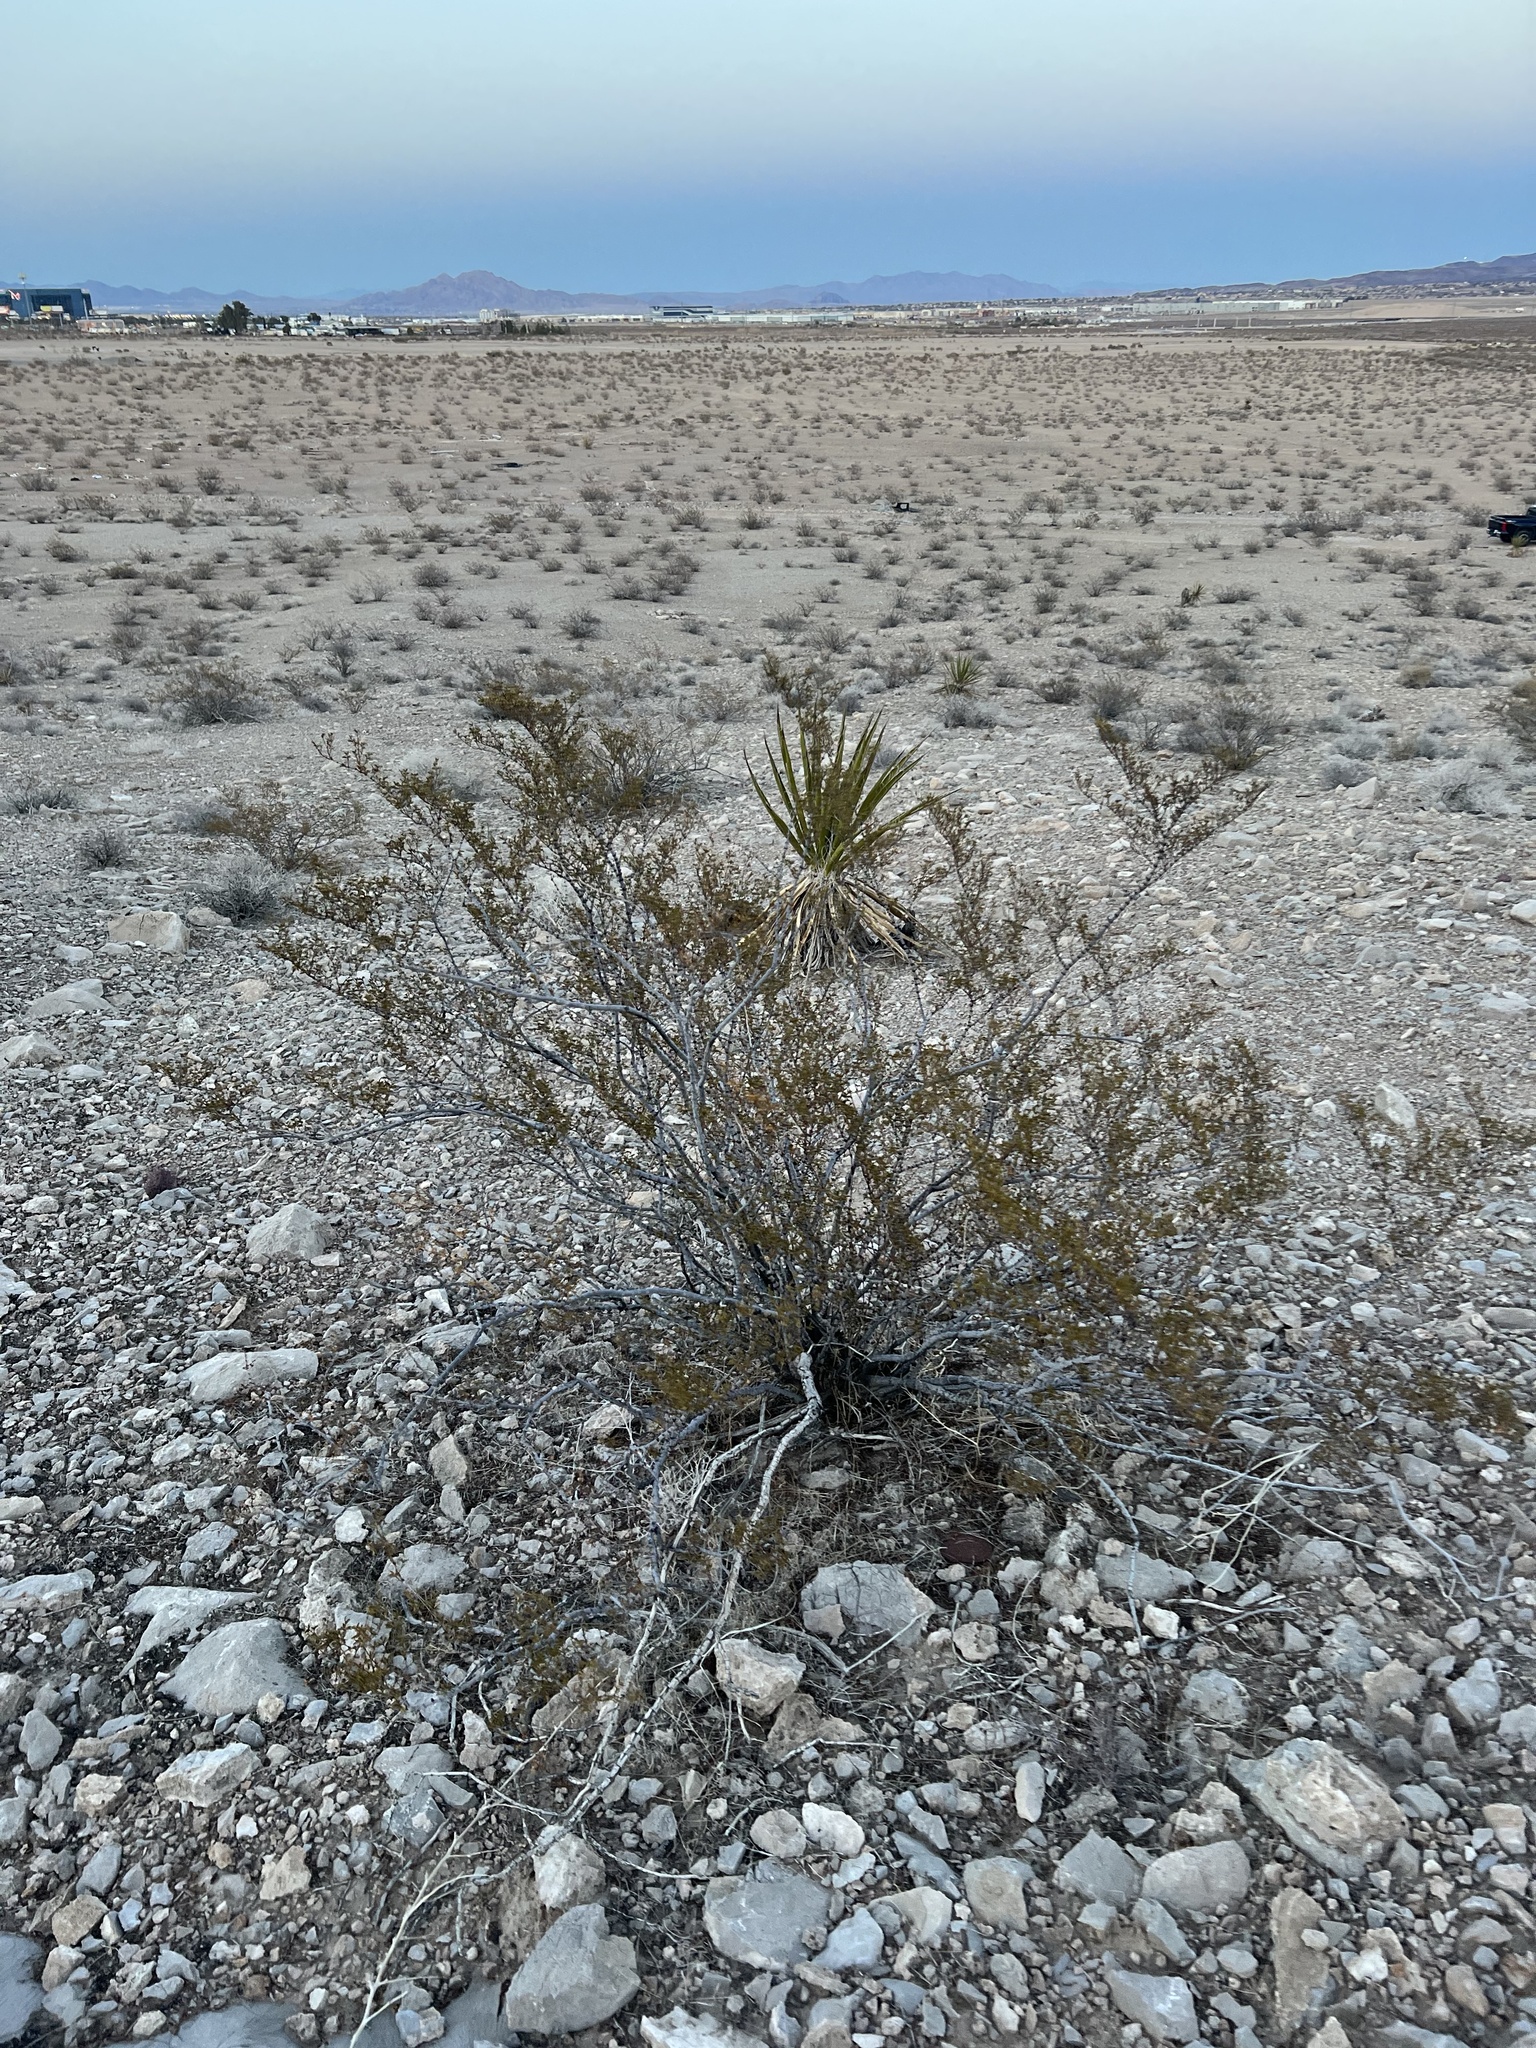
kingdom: Plantae
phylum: Tracheophyta
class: Magnoliopsida
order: Zygophyllales
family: Zygophyllaceae
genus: Larrea
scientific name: Larrea tridentata
